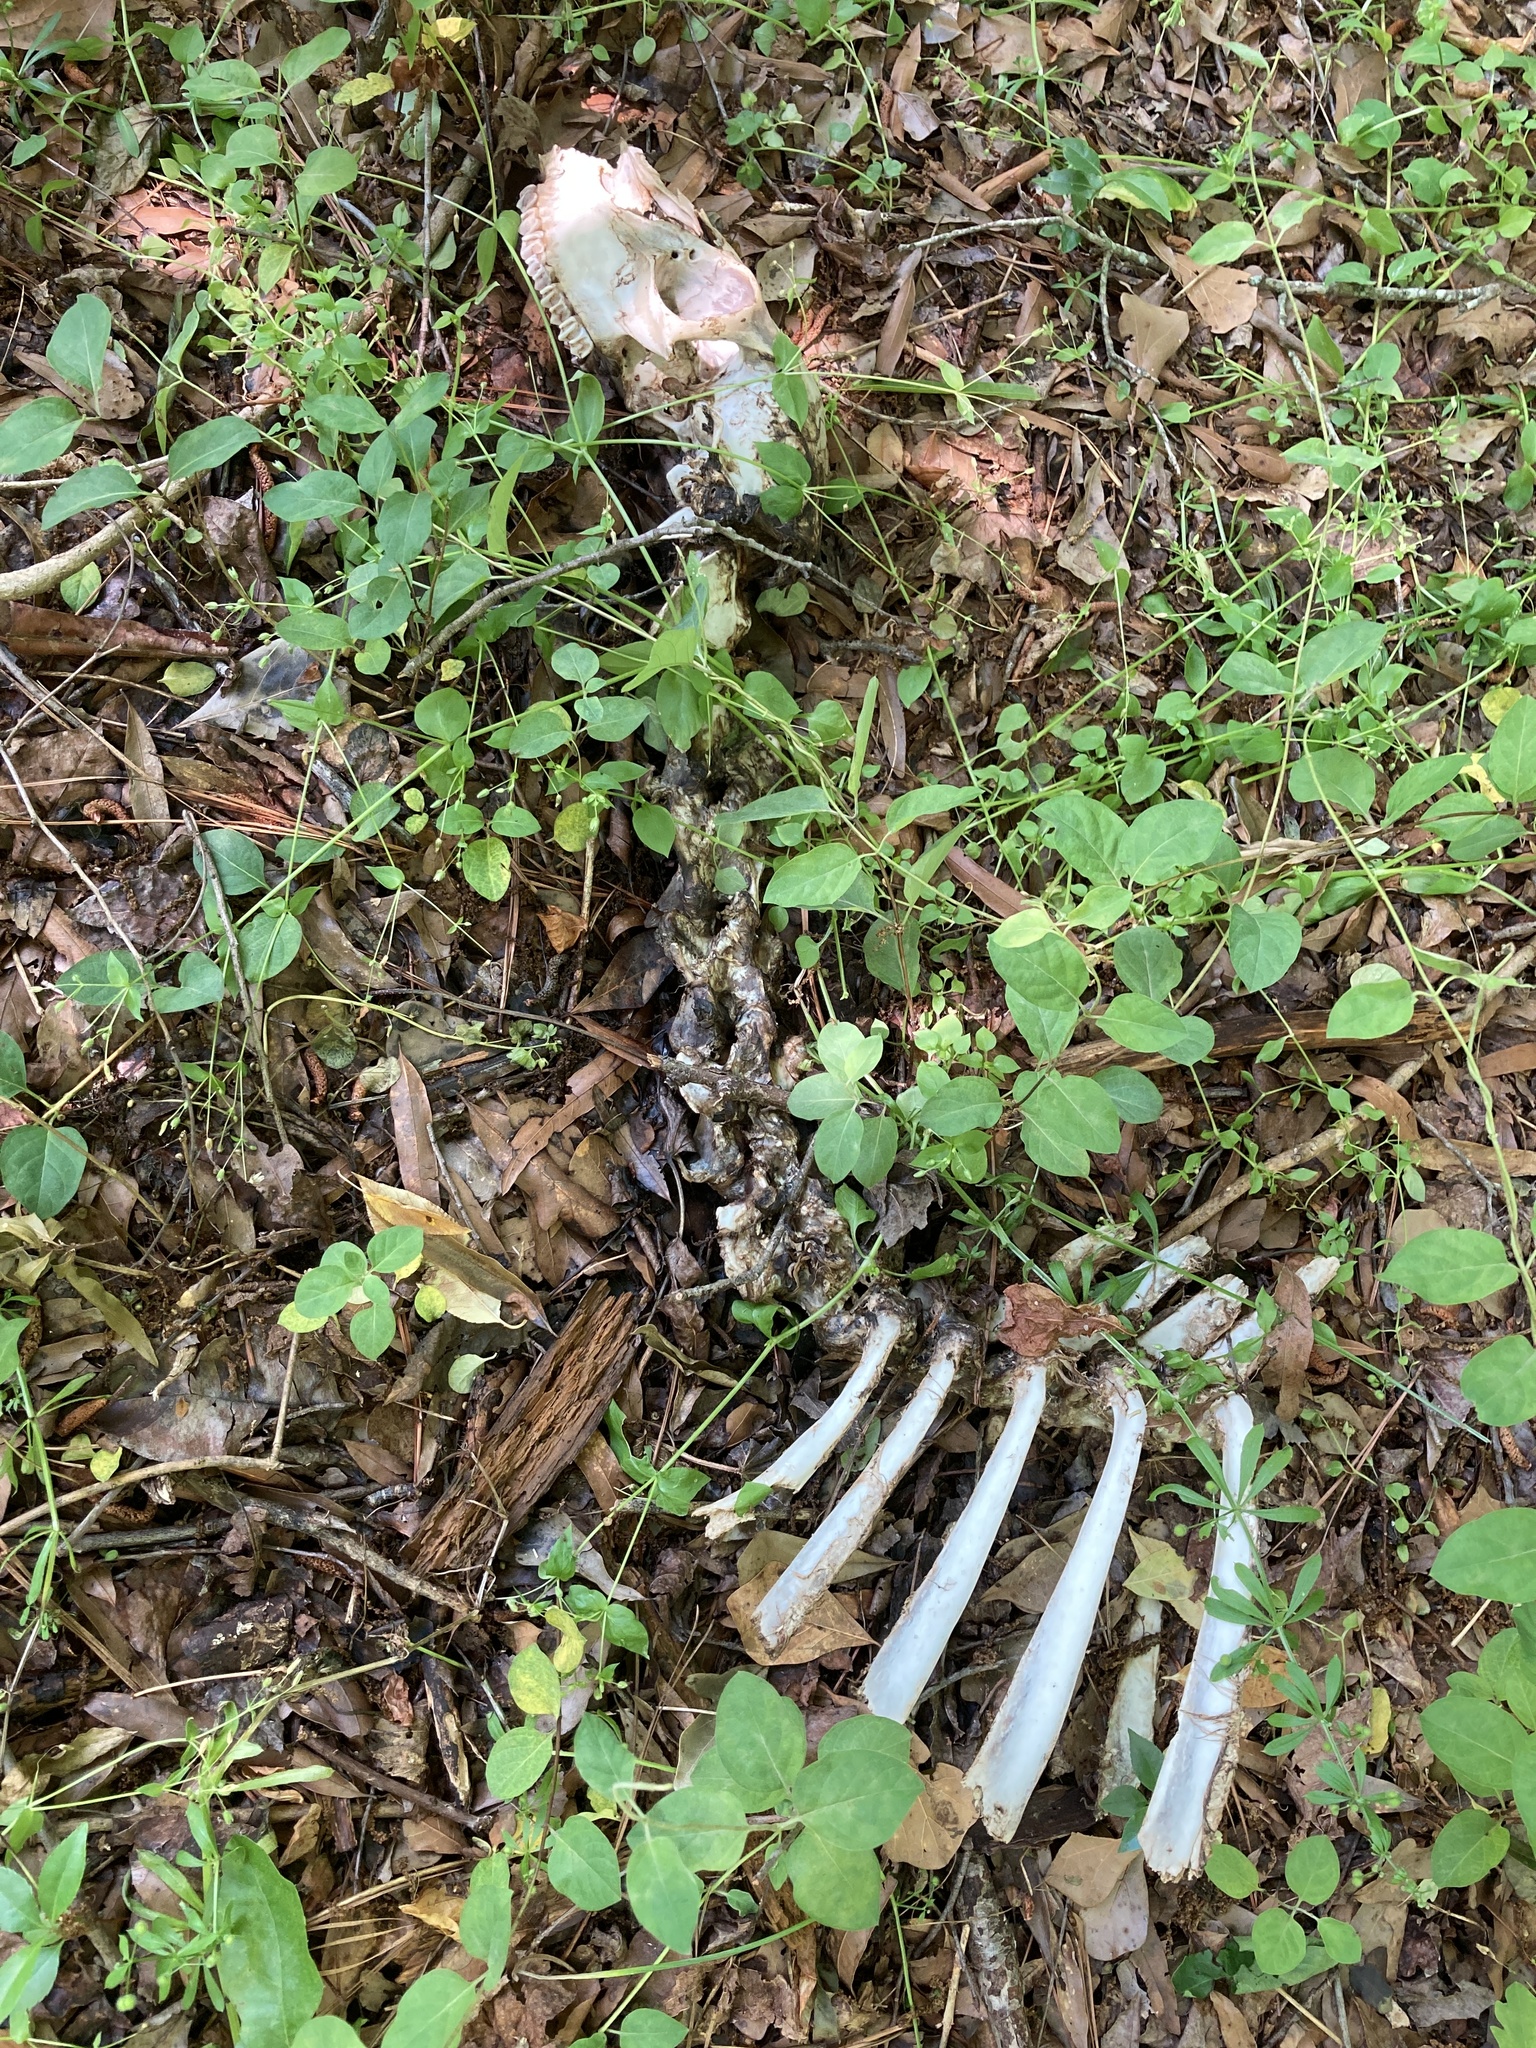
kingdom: Animalia
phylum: Chordata
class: Mammalia
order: Artiodactyla
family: Cervidae
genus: Odocoileus
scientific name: Odocoileus virginianus
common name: White-tailed deer
